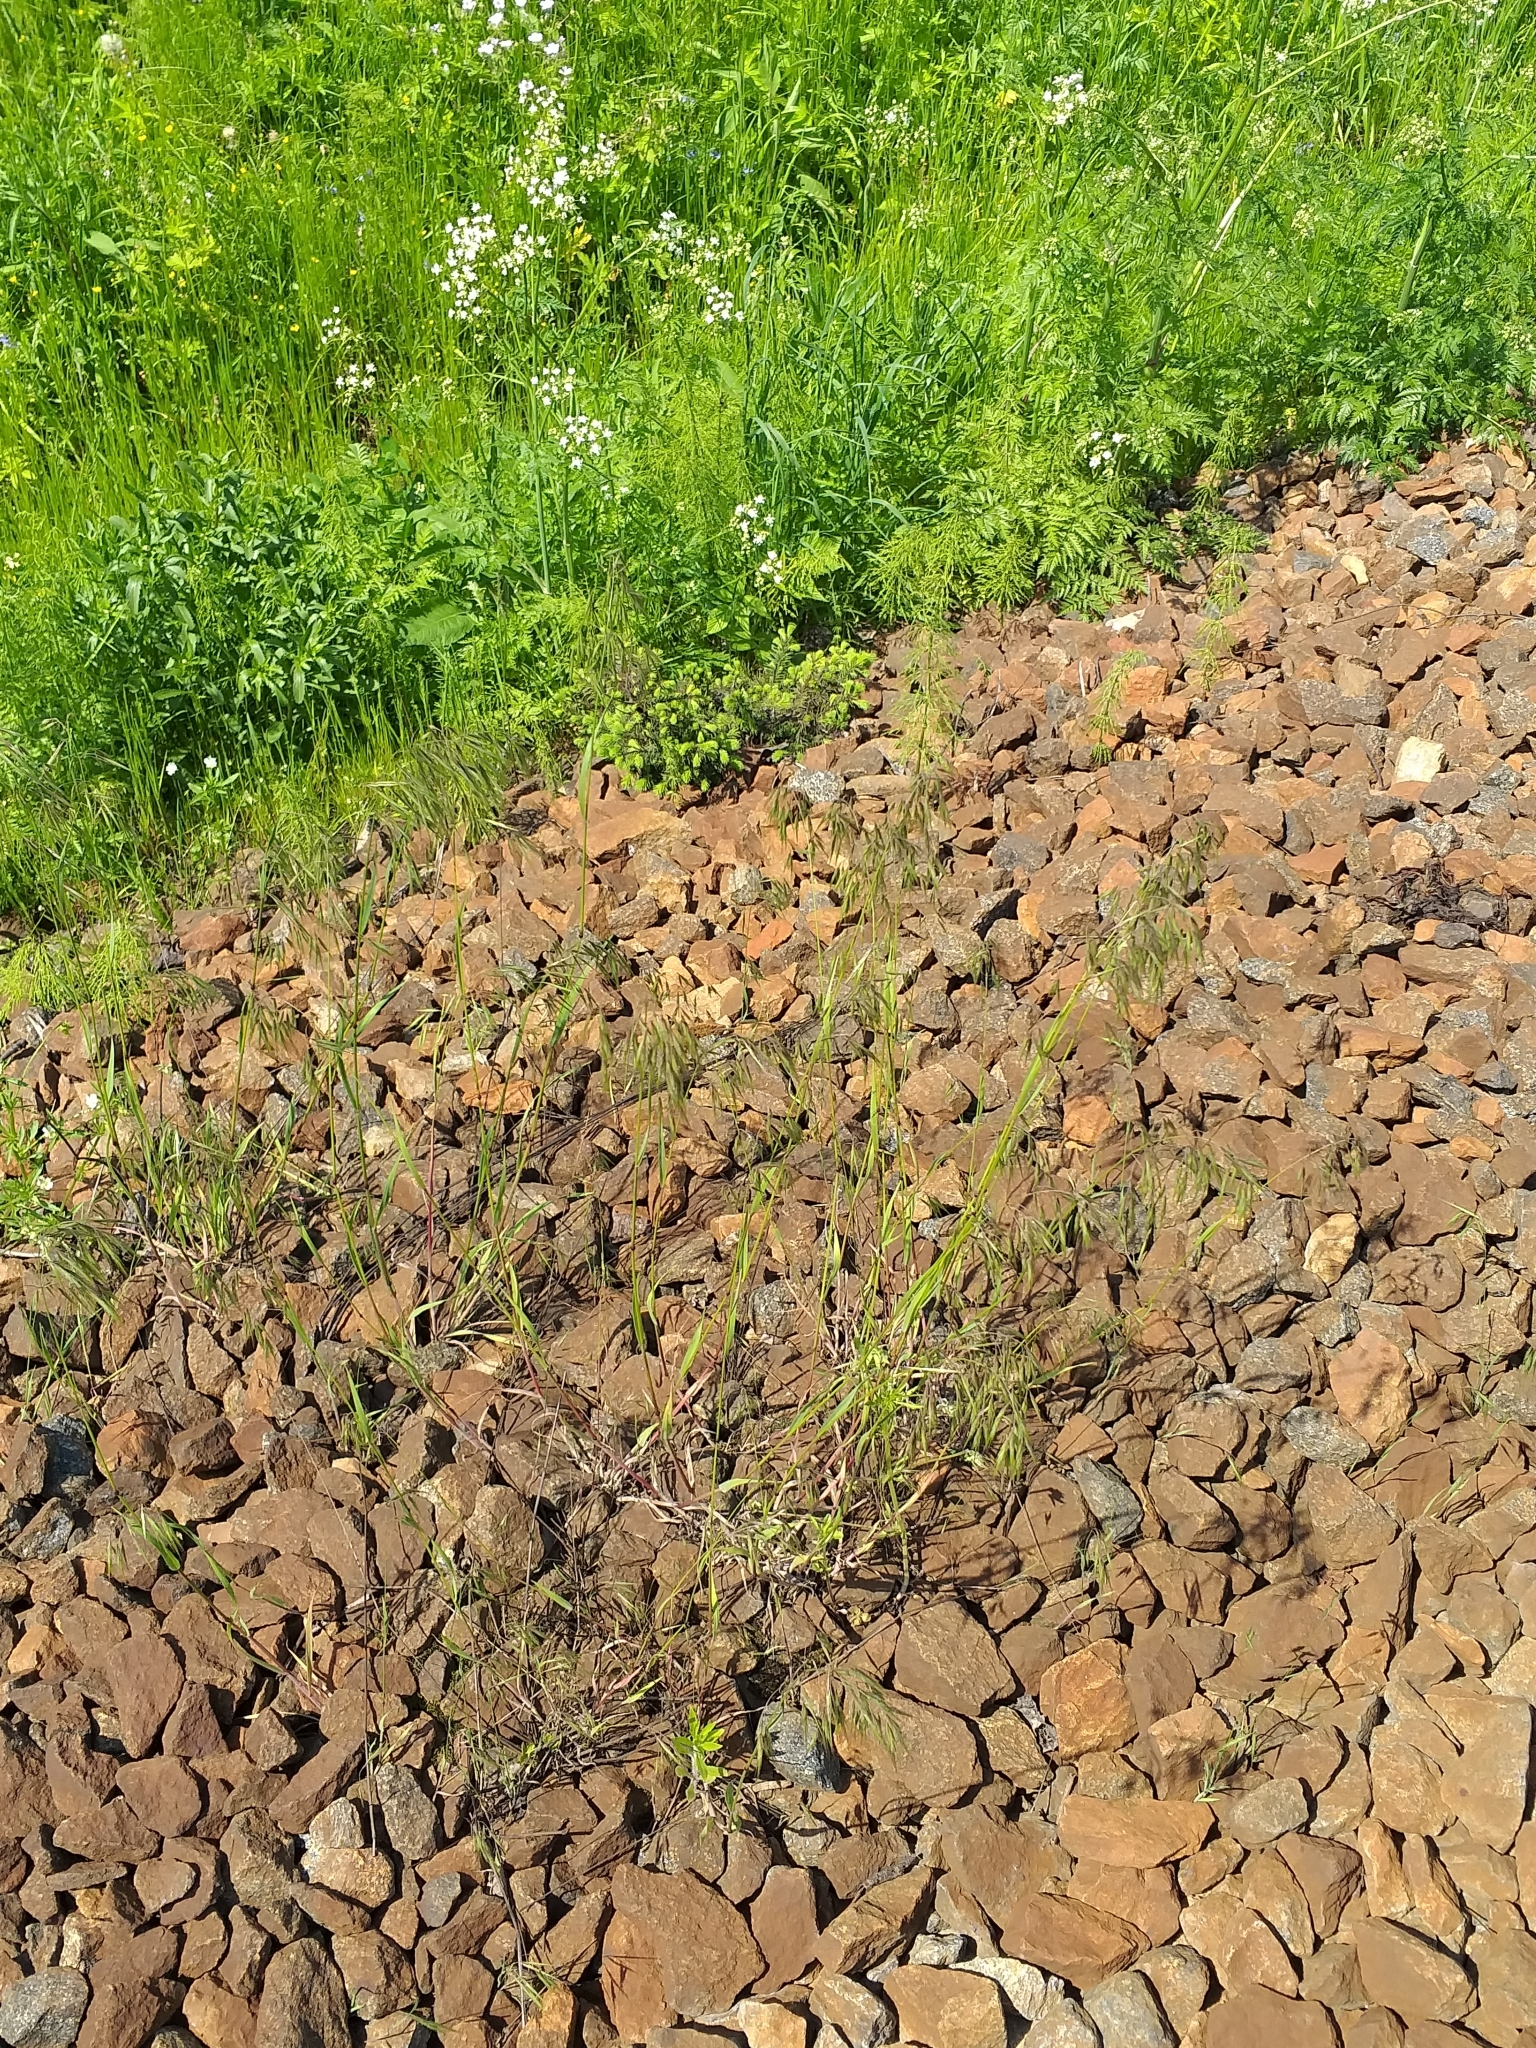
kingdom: Plantae
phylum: Tracheophyta
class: Liliopsida
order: Poales
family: Poaceae
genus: Bromus
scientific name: Bromus tectorum
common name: Cheatgrass
